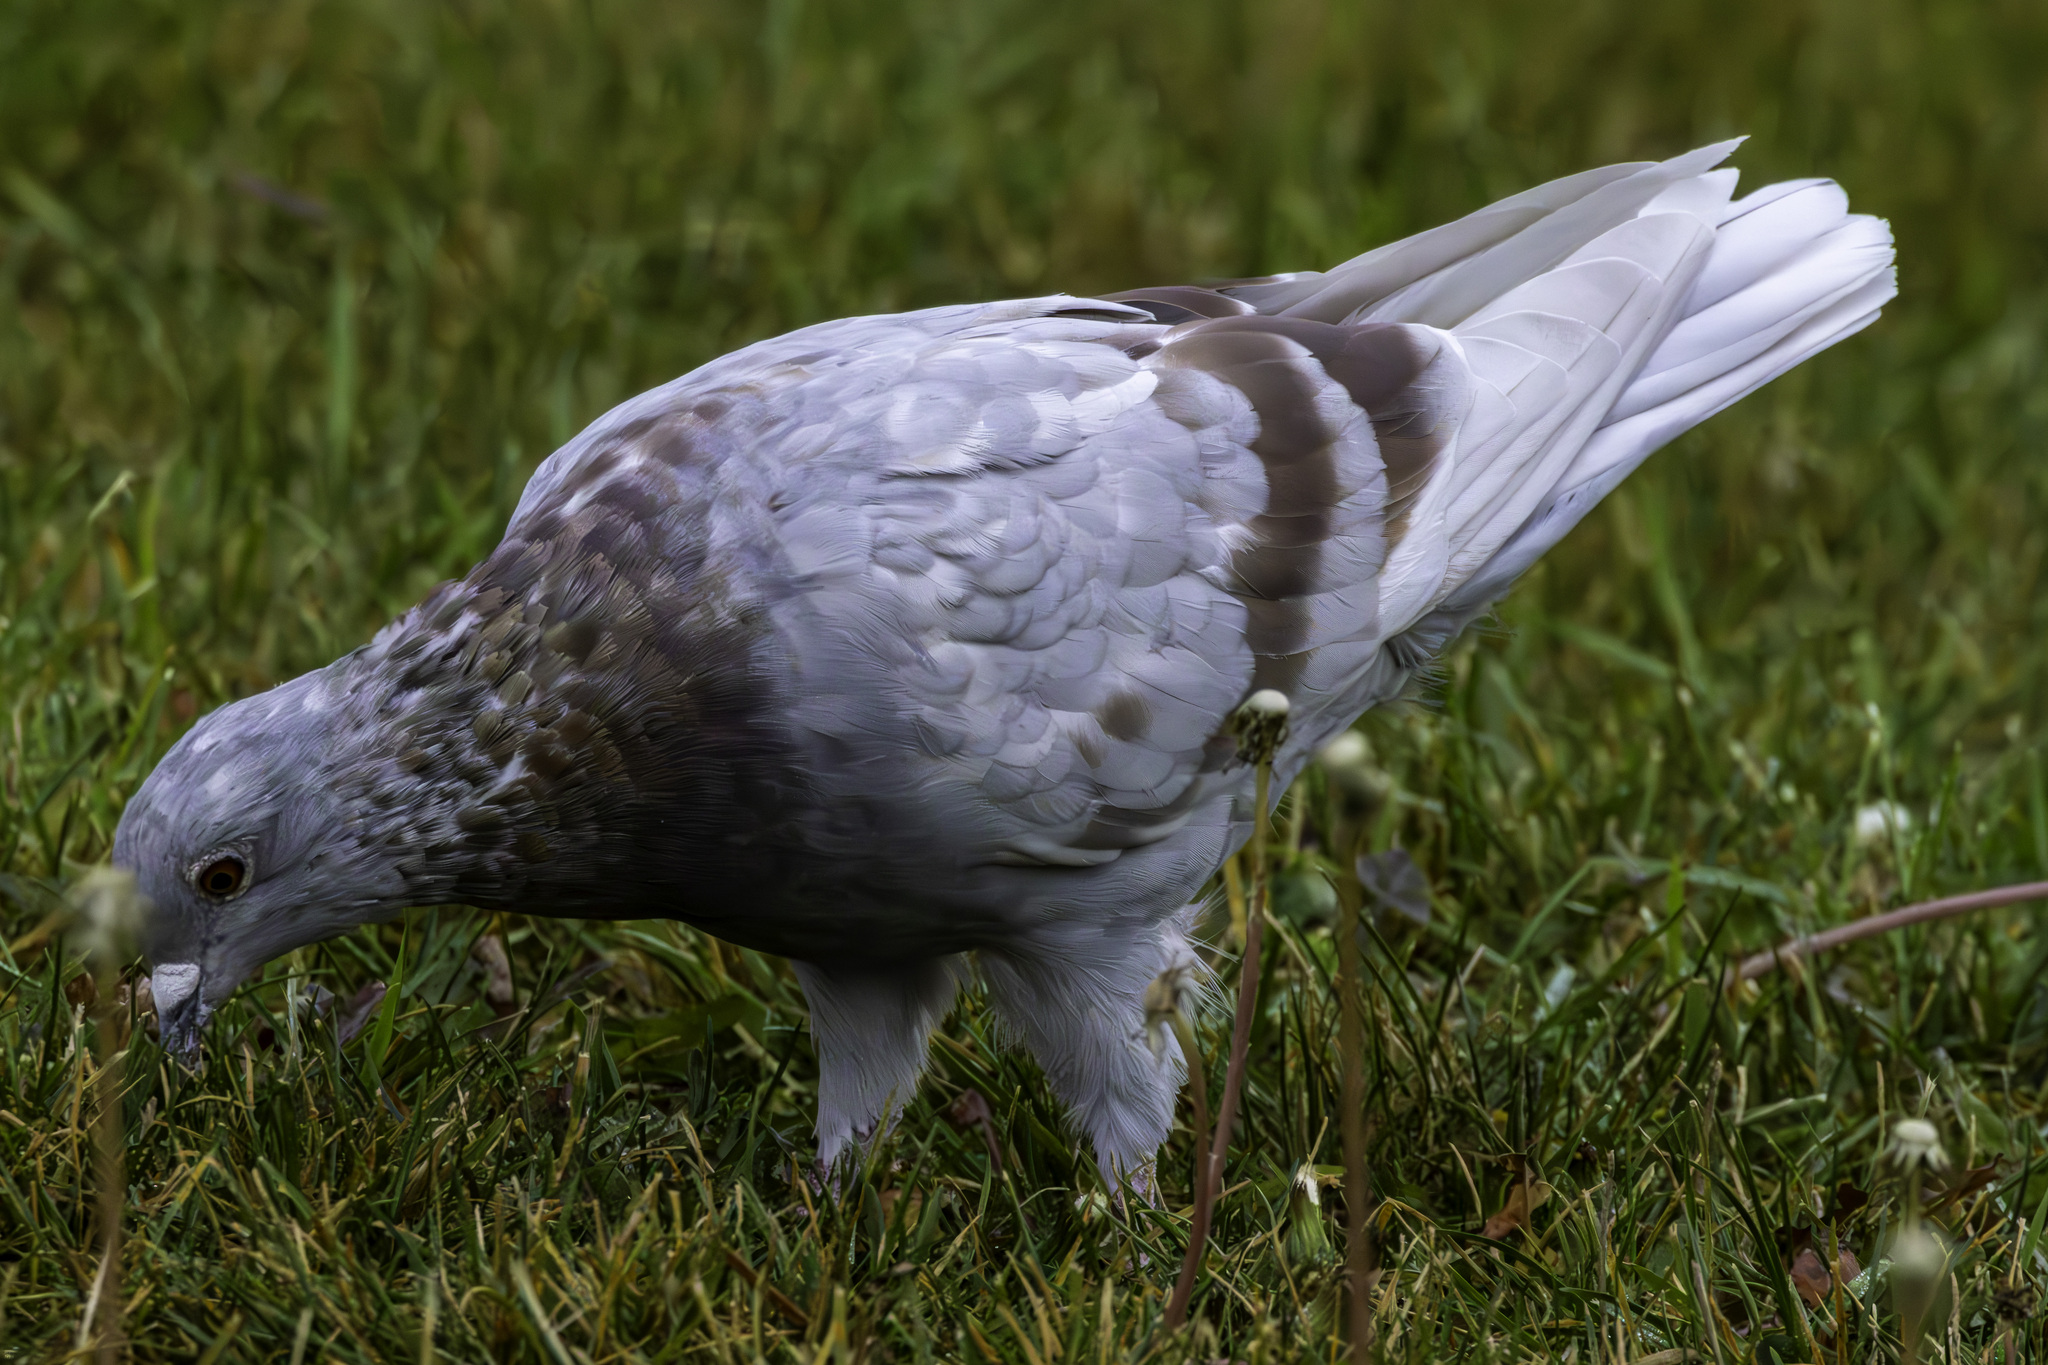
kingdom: Animalia
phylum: Chordata
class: Aves
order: Columbiformes
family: Columbidae
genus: Columba
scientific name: Columba livia
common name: Rock pigeon
